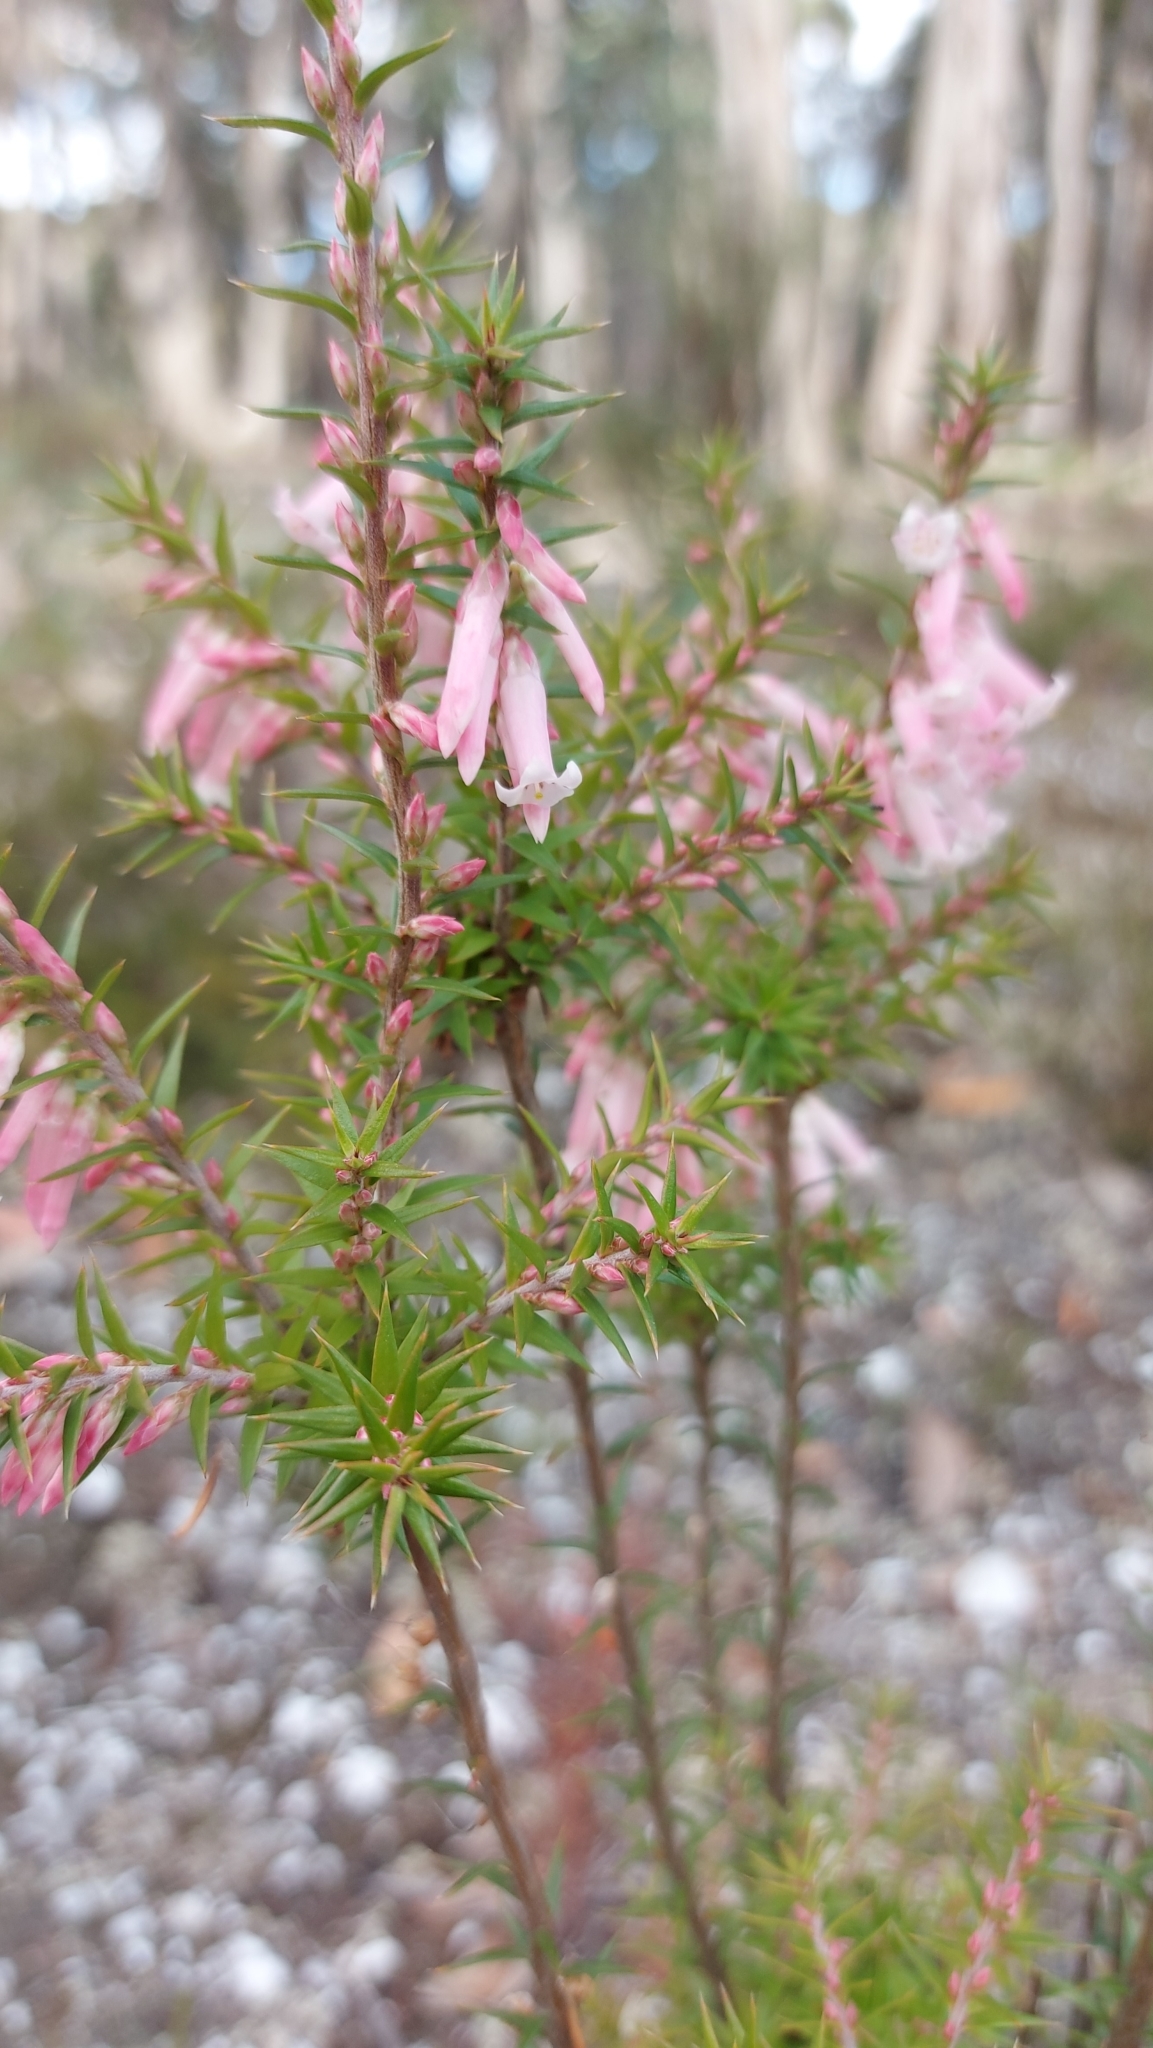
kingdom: Plantae
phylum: Tracheophyta
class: Magnoliopsida
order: Ericales
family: Ericaceae
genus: Epacris
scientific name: Epacris impressa
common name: Common-heath
